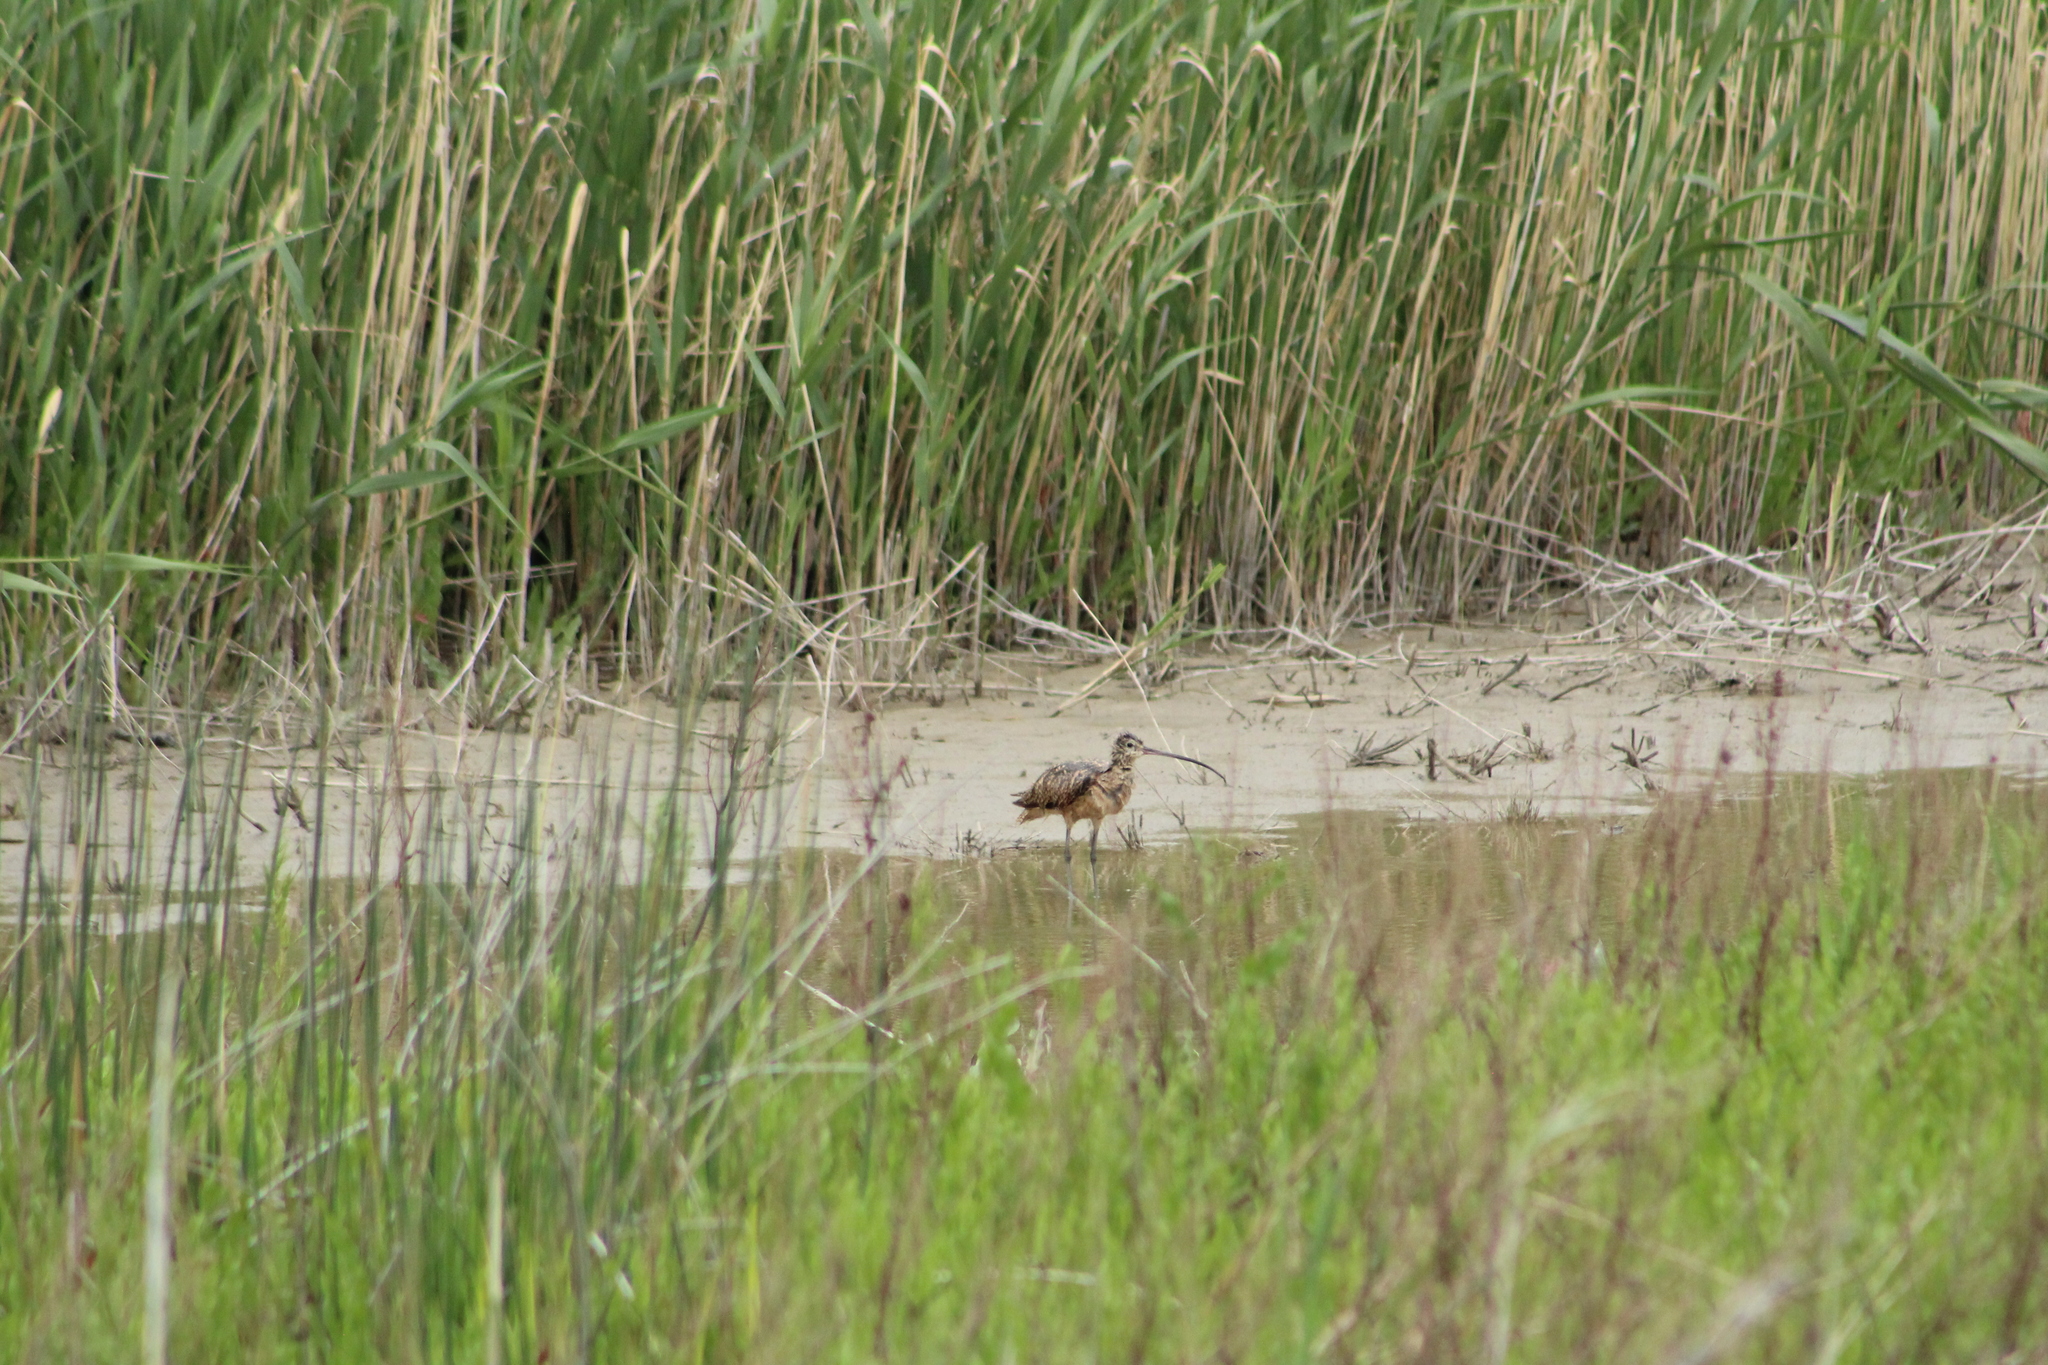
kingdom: Animalia
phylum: Chordata
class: Aves
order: Charadriiformes
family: Scolopacidae
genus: Numenius
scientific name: Numenius americanus
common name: Long-billed curlew
